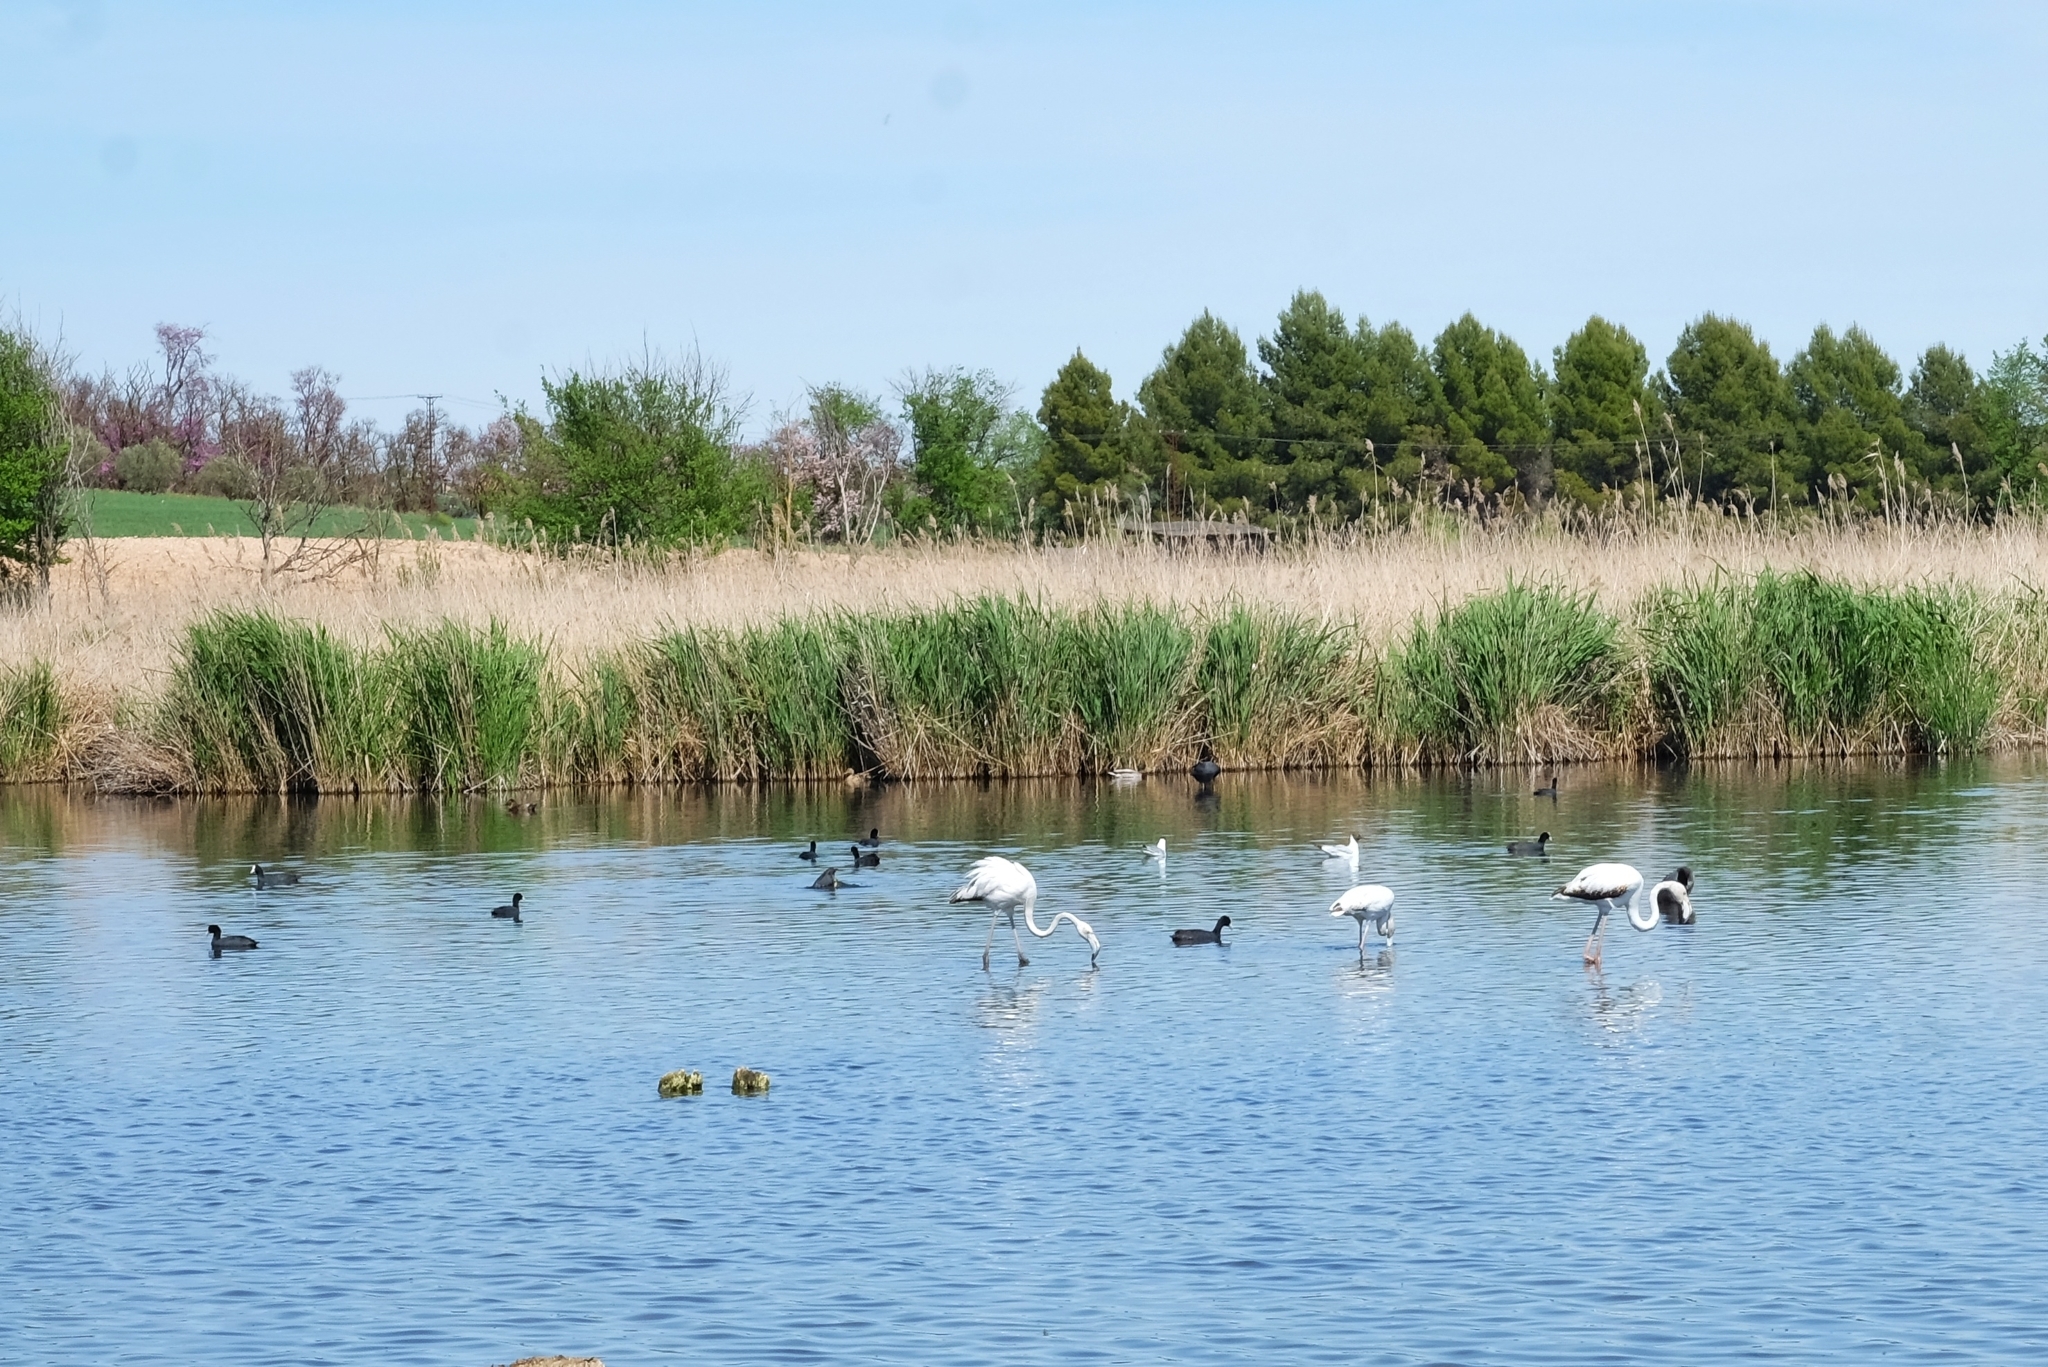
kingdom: Animalia
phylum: Chordata
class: Aves
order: Phoenicopteriformes
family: Phoenicopteridae
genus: Phoenicopterus
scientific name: Phoenicopterus roseus
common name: Greater flamingo
